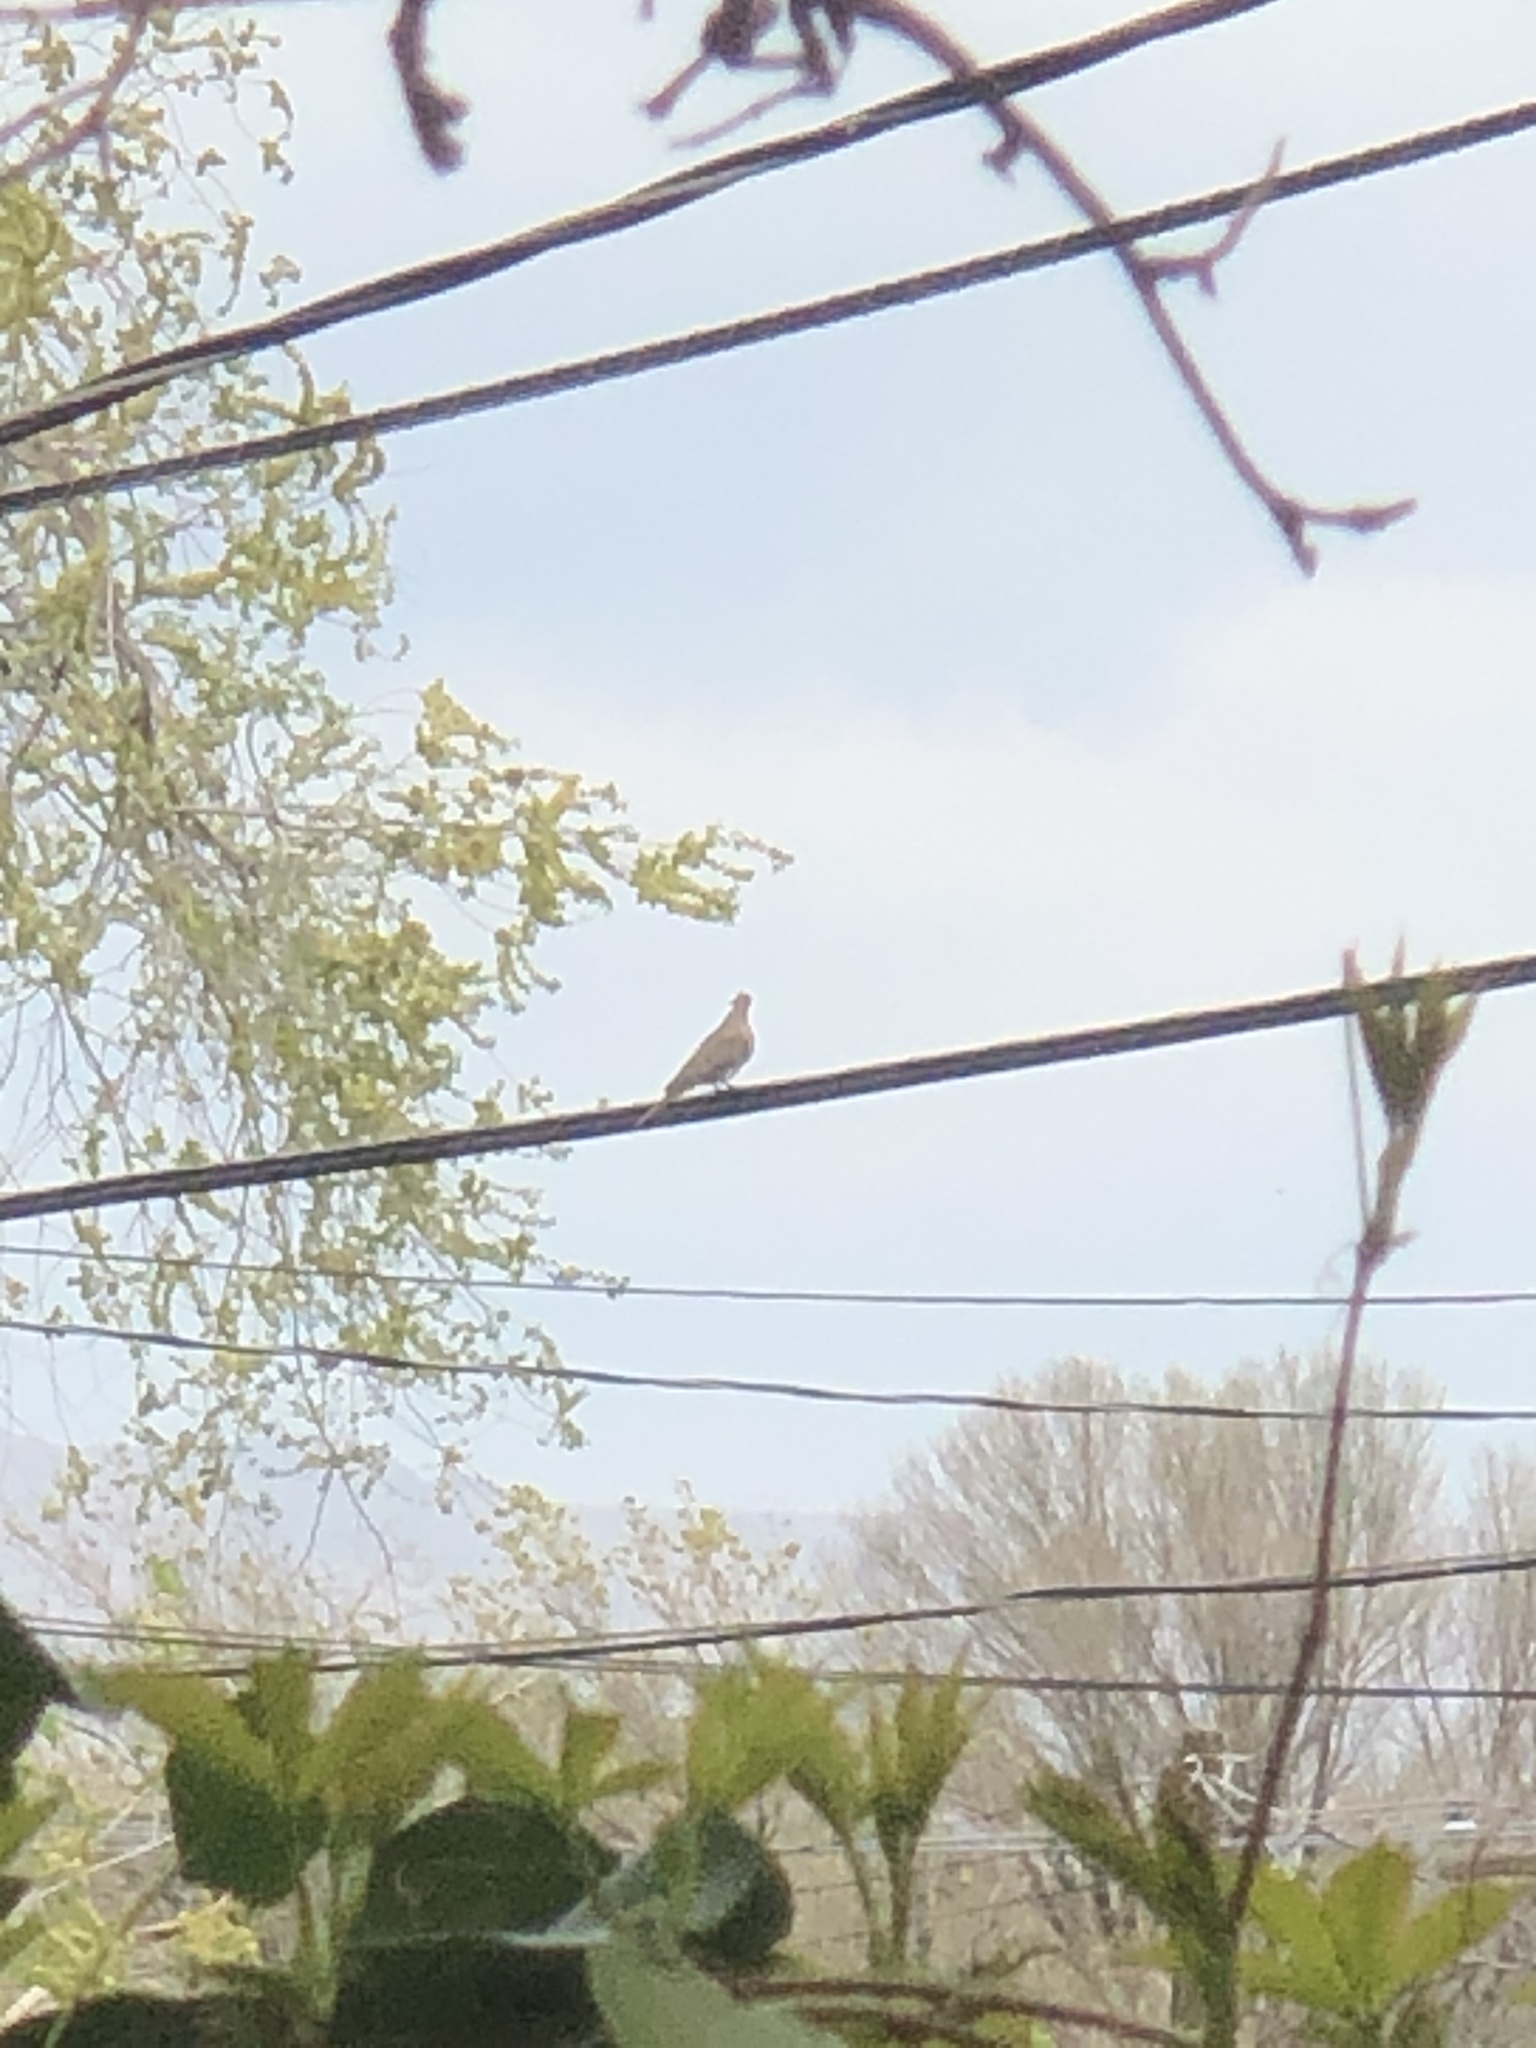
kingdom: Animalia
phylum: Chordata
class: Aves
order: Columbiformes
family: Columbidae
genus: Zenaida
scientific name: Zenaida macroura
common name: Mourning dove
